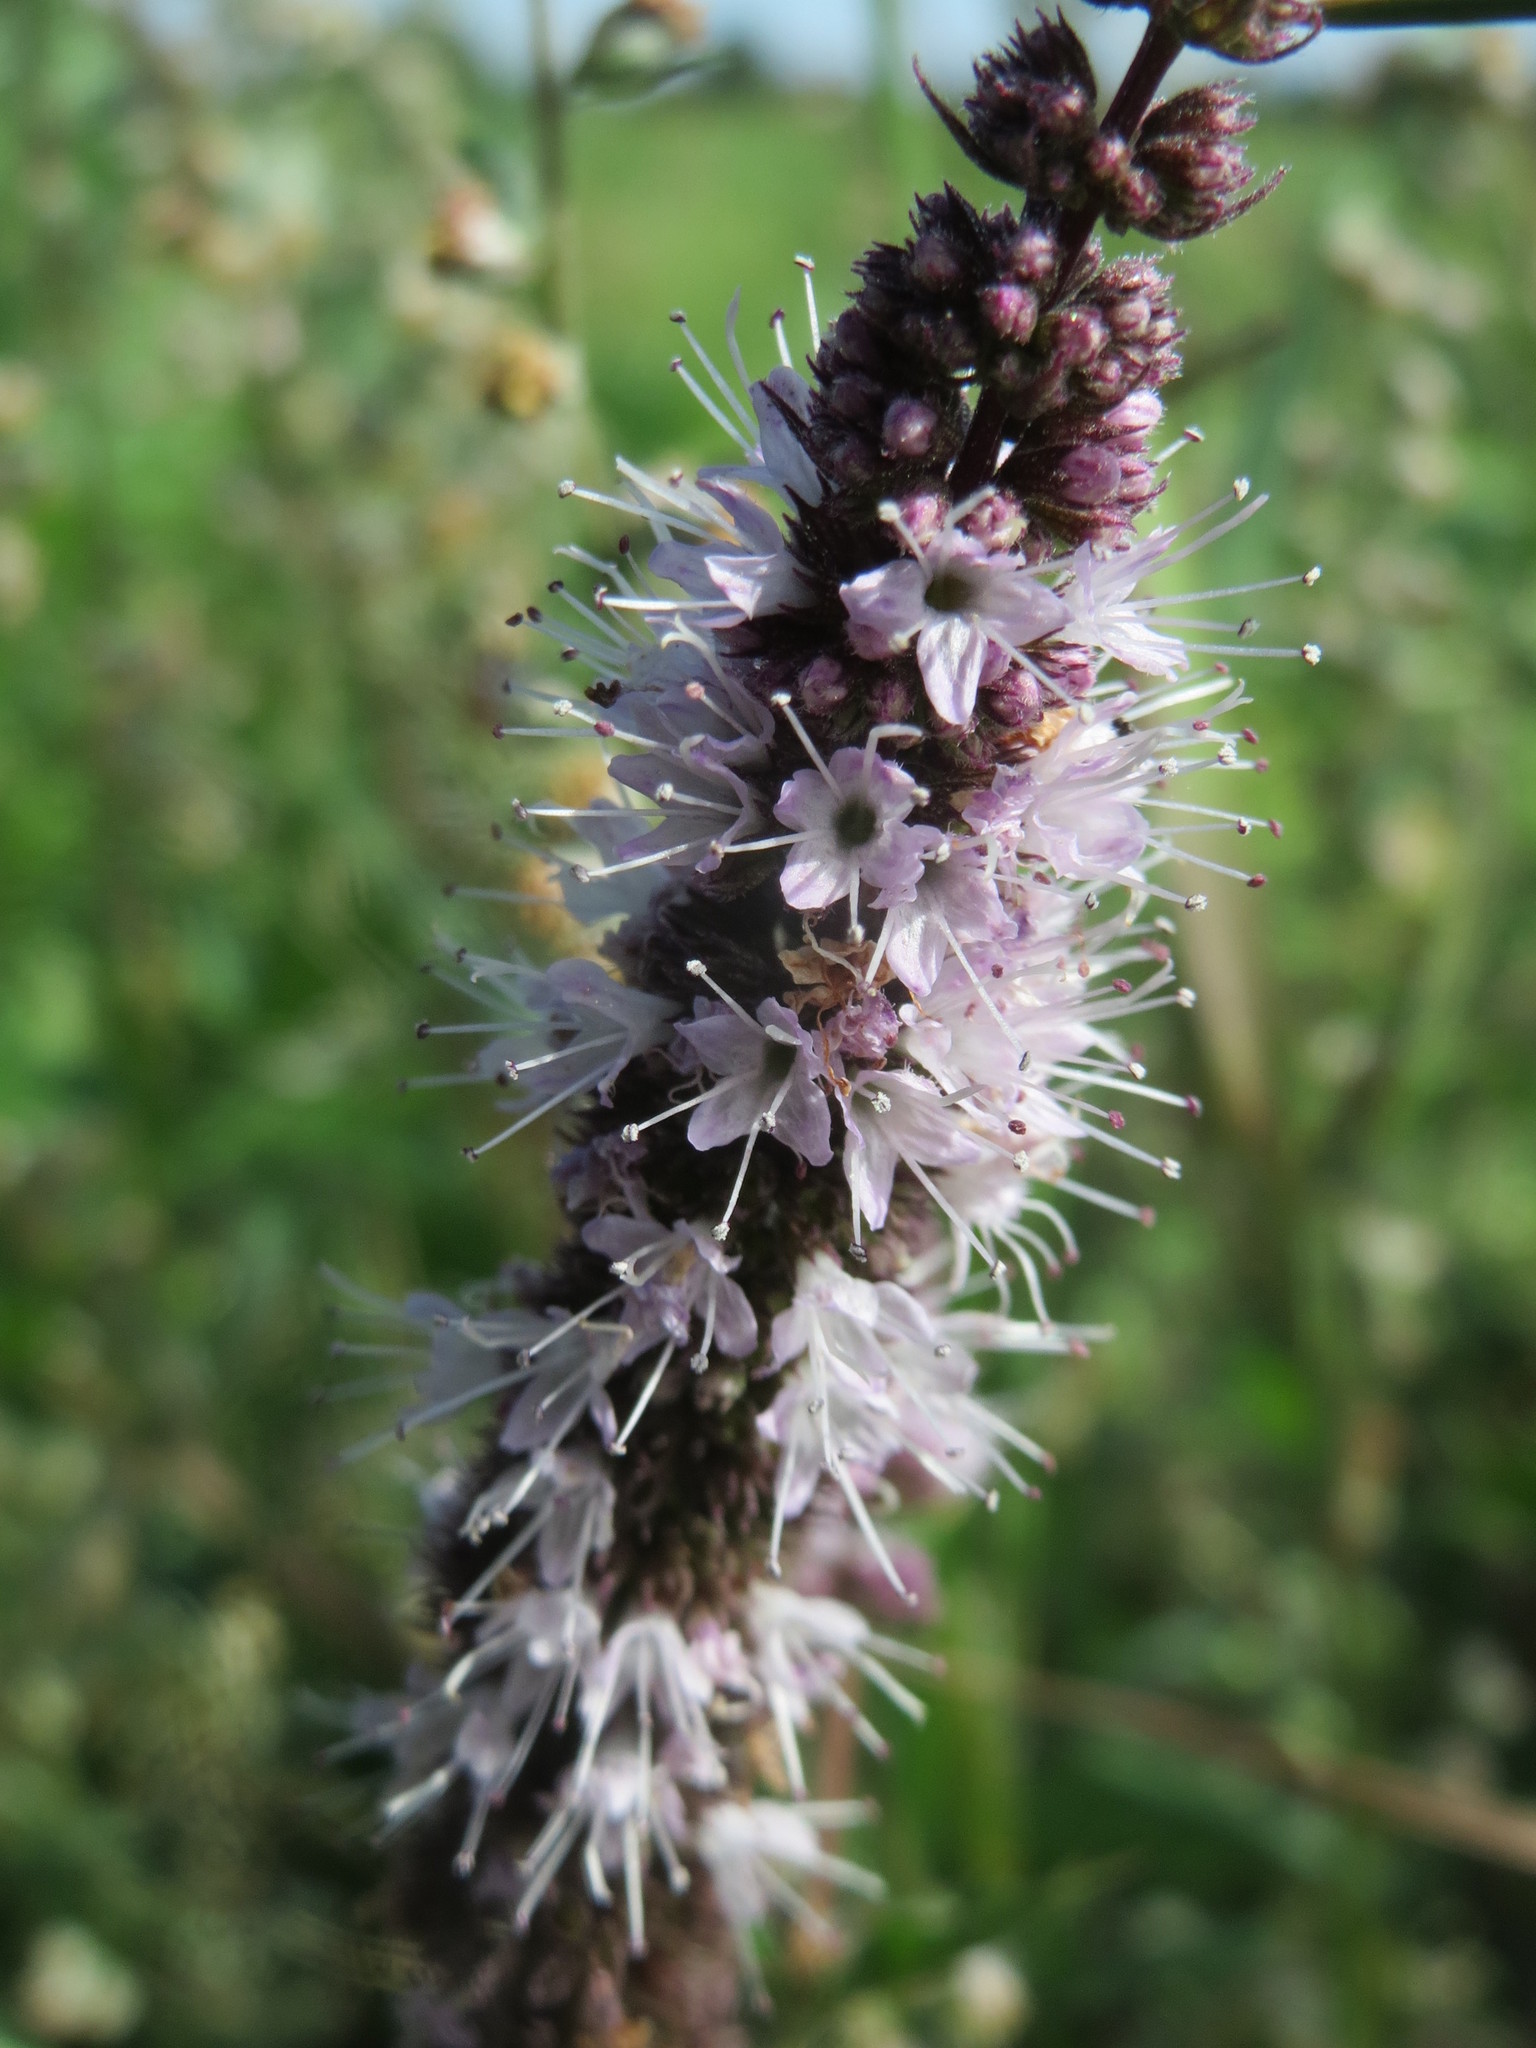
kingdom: Plantae
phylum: Tracheophyta
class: Magnoliopsida
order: Lamiales
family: Lamiaceae
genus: Mentha
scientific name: Mentha spicata
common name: Spearmint
